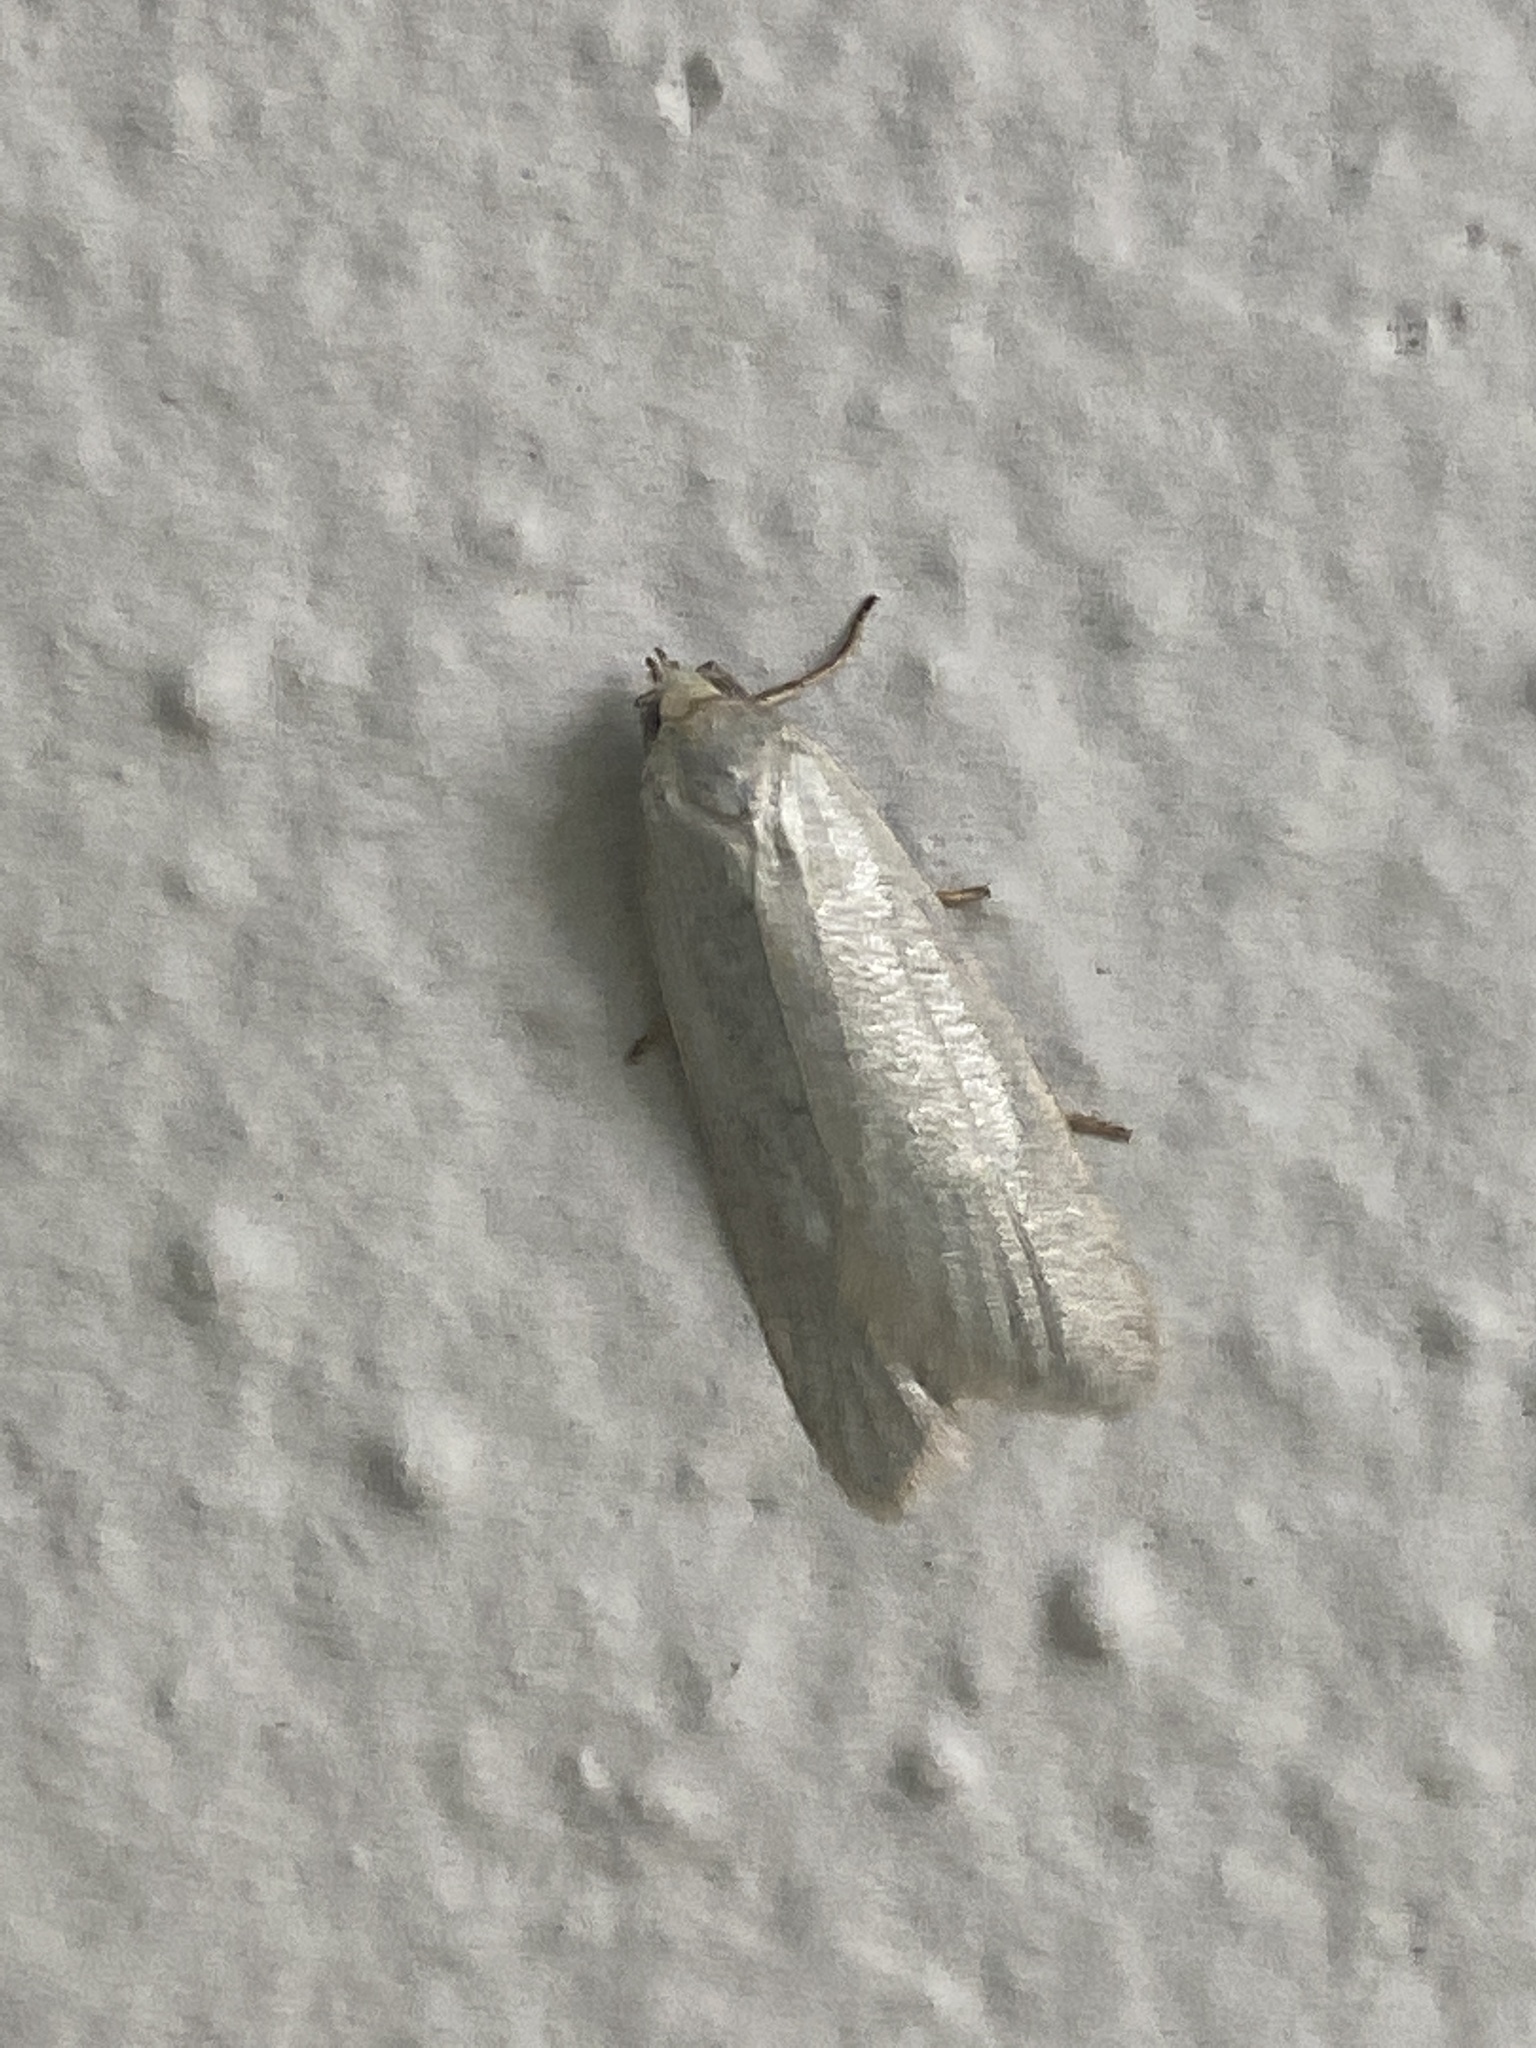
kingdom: Animalia
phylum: Arthropoda
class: Insecta
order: Lepidoptera
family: Tortricidae
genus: Eana
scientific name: Eana argentana
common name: Silver shade
